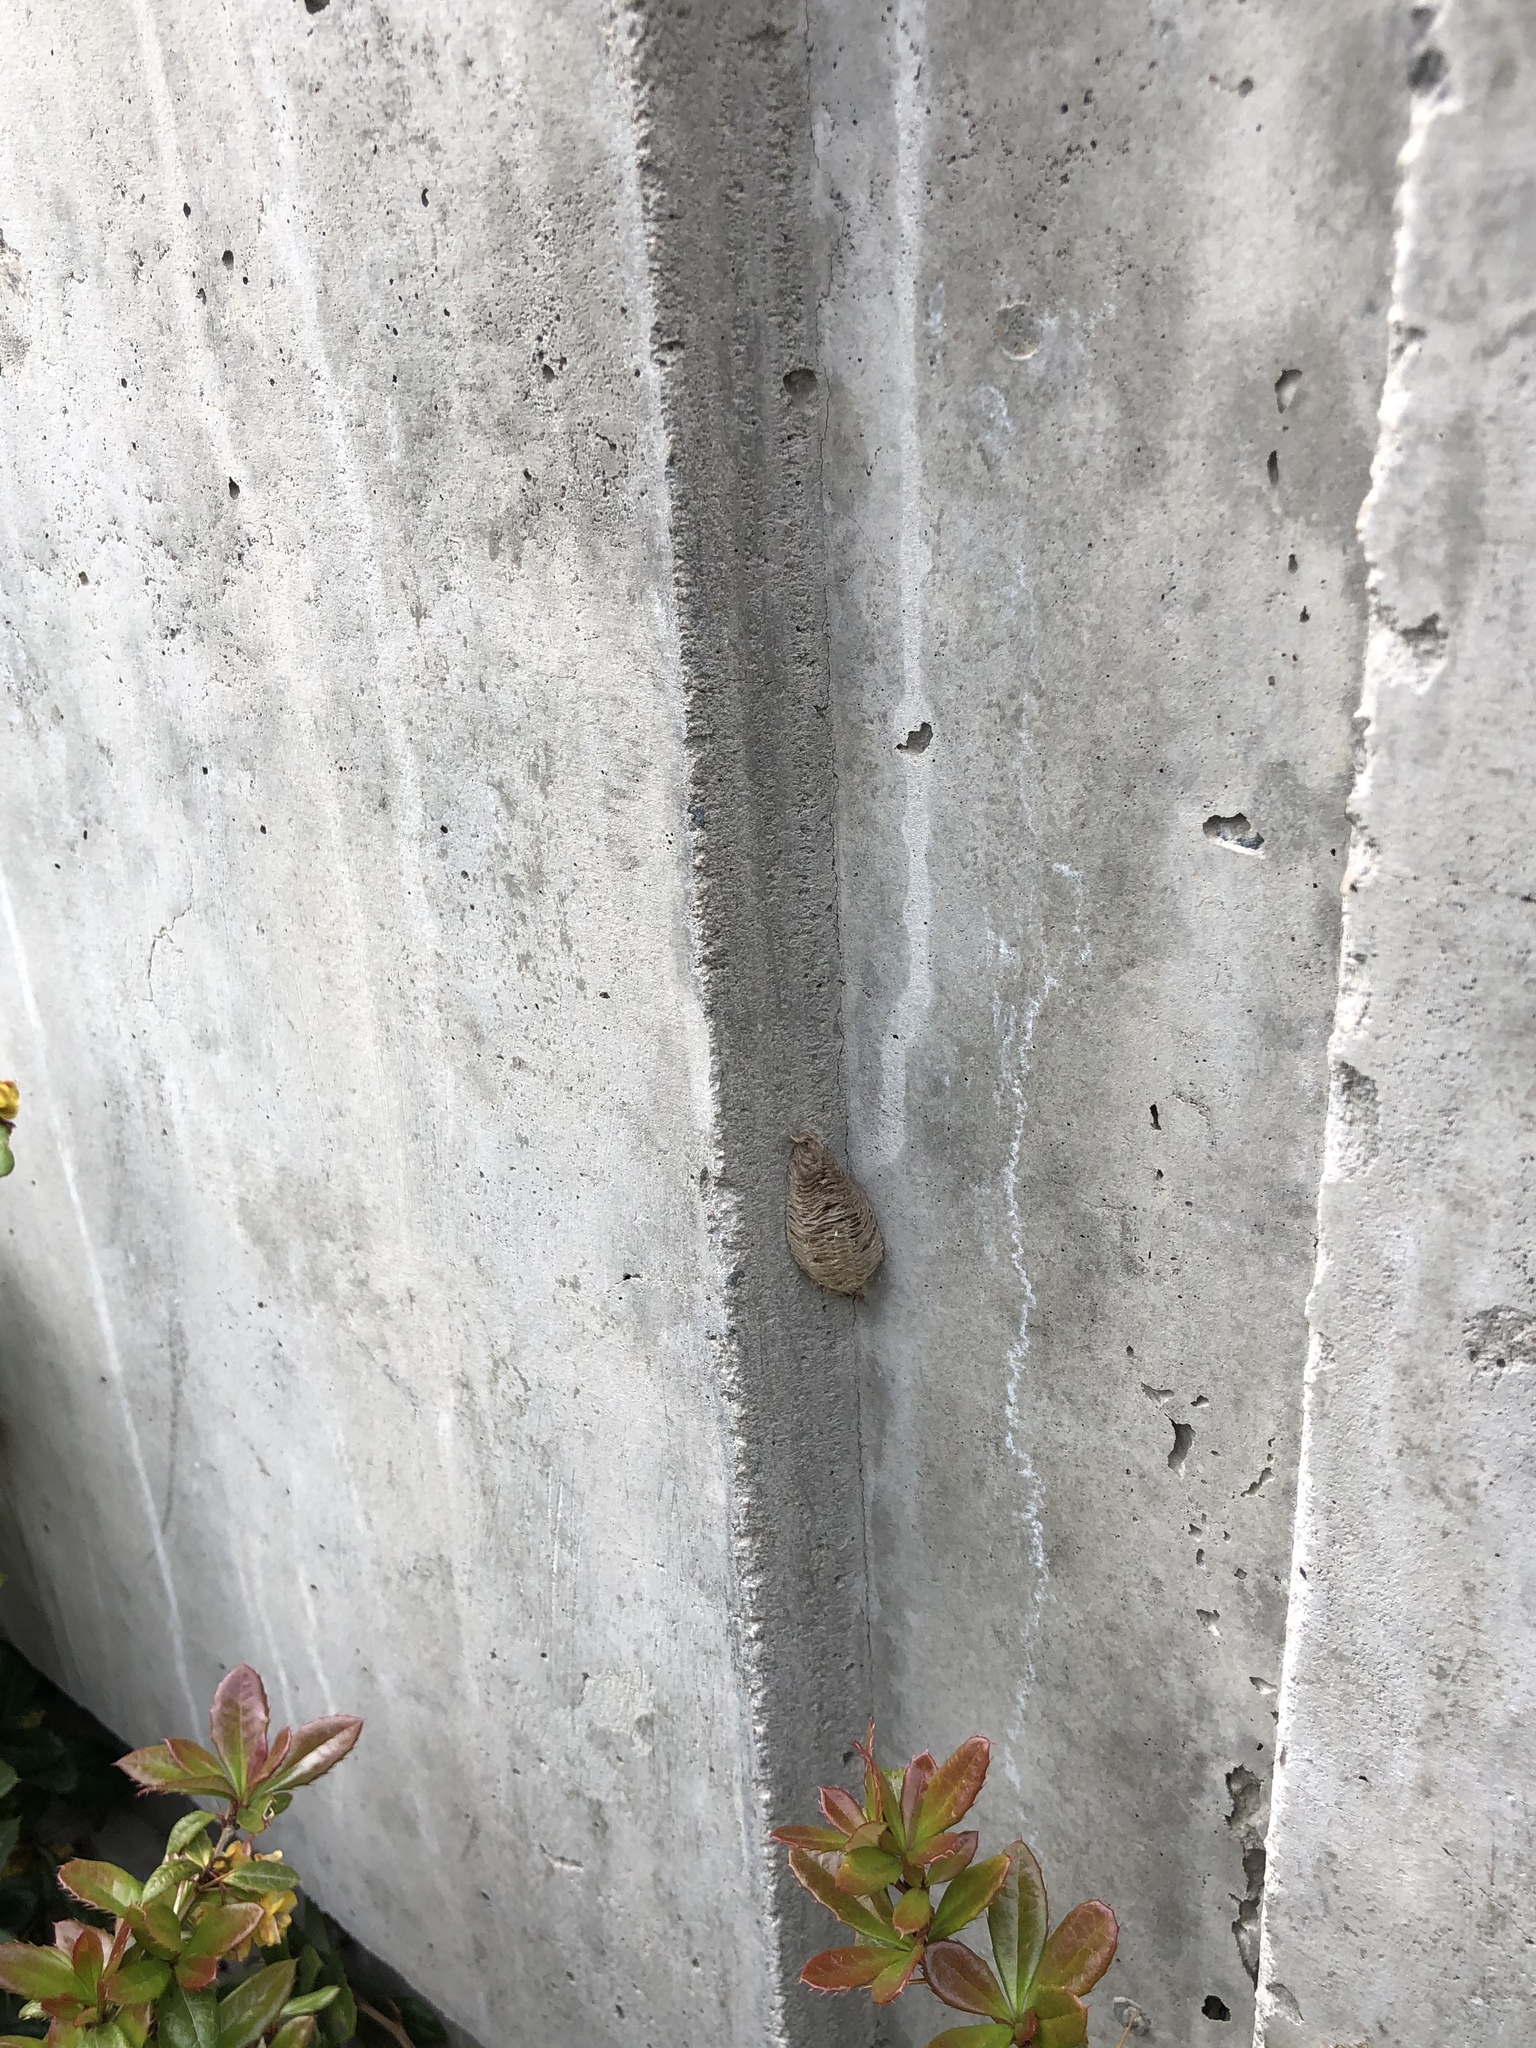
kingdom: Animalia
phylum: Arthropoda
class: Insecta
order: Mantodea
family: Mantidae
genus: Mantis
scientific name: Mantis religiosa
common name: Praying mantis
